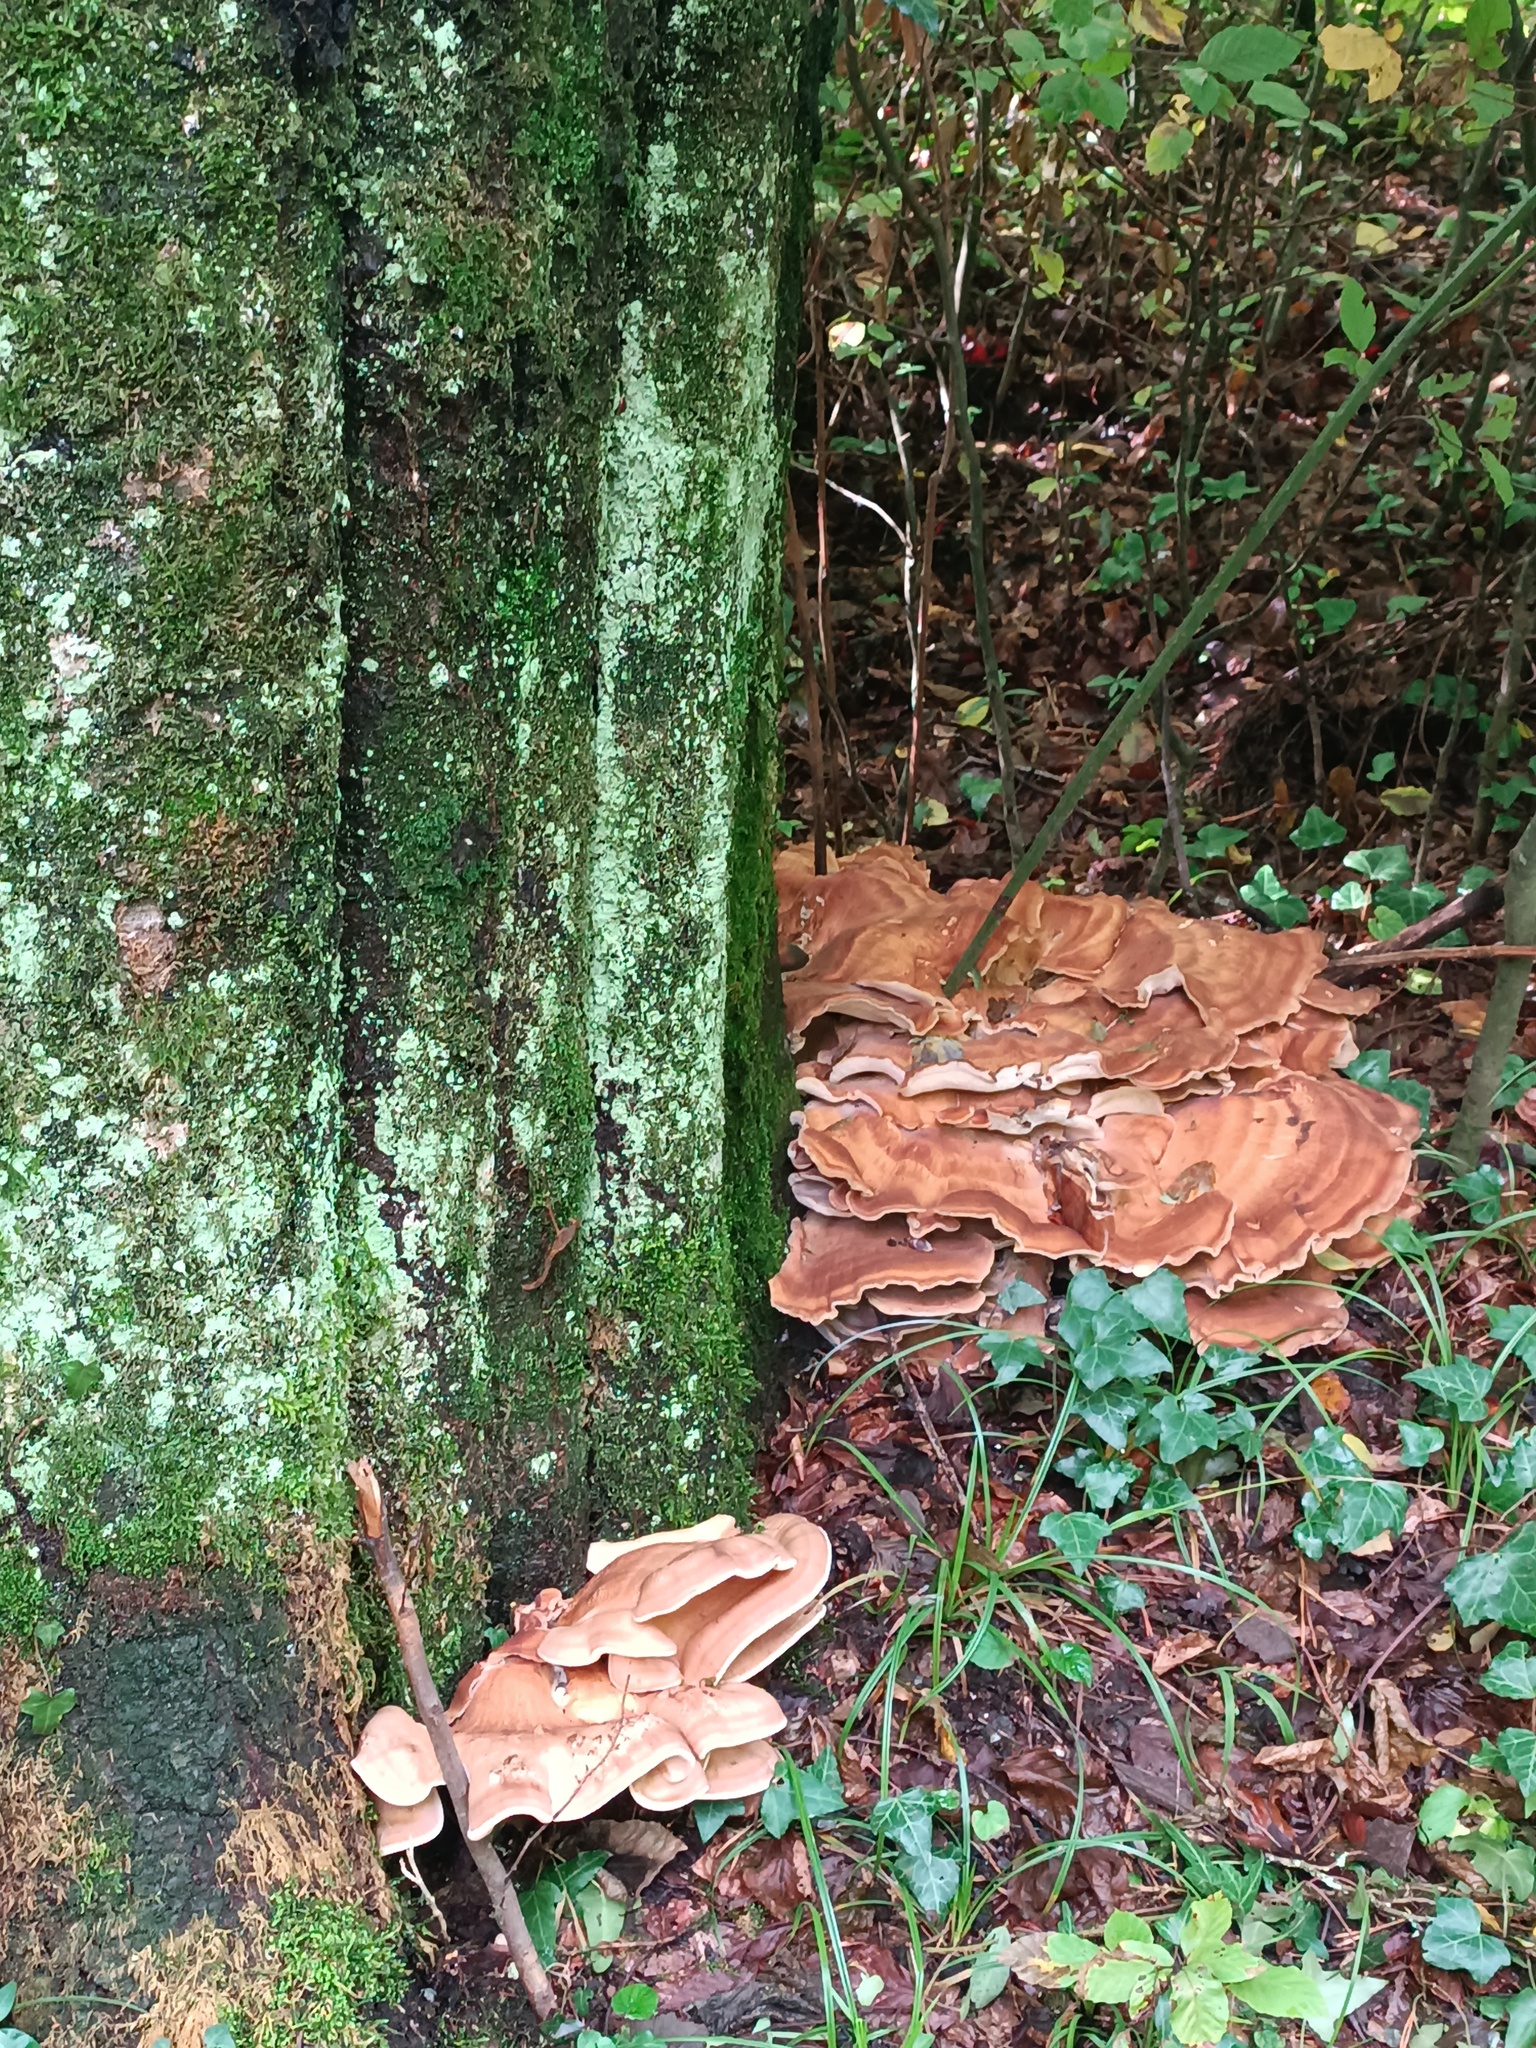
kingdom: Fungi
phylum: Basidiomycota
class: Agaricomycetes
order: Polyporales
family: Meripilaceae
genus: Meripilus
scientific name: Meripilus giganteus
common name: Giant polypore
